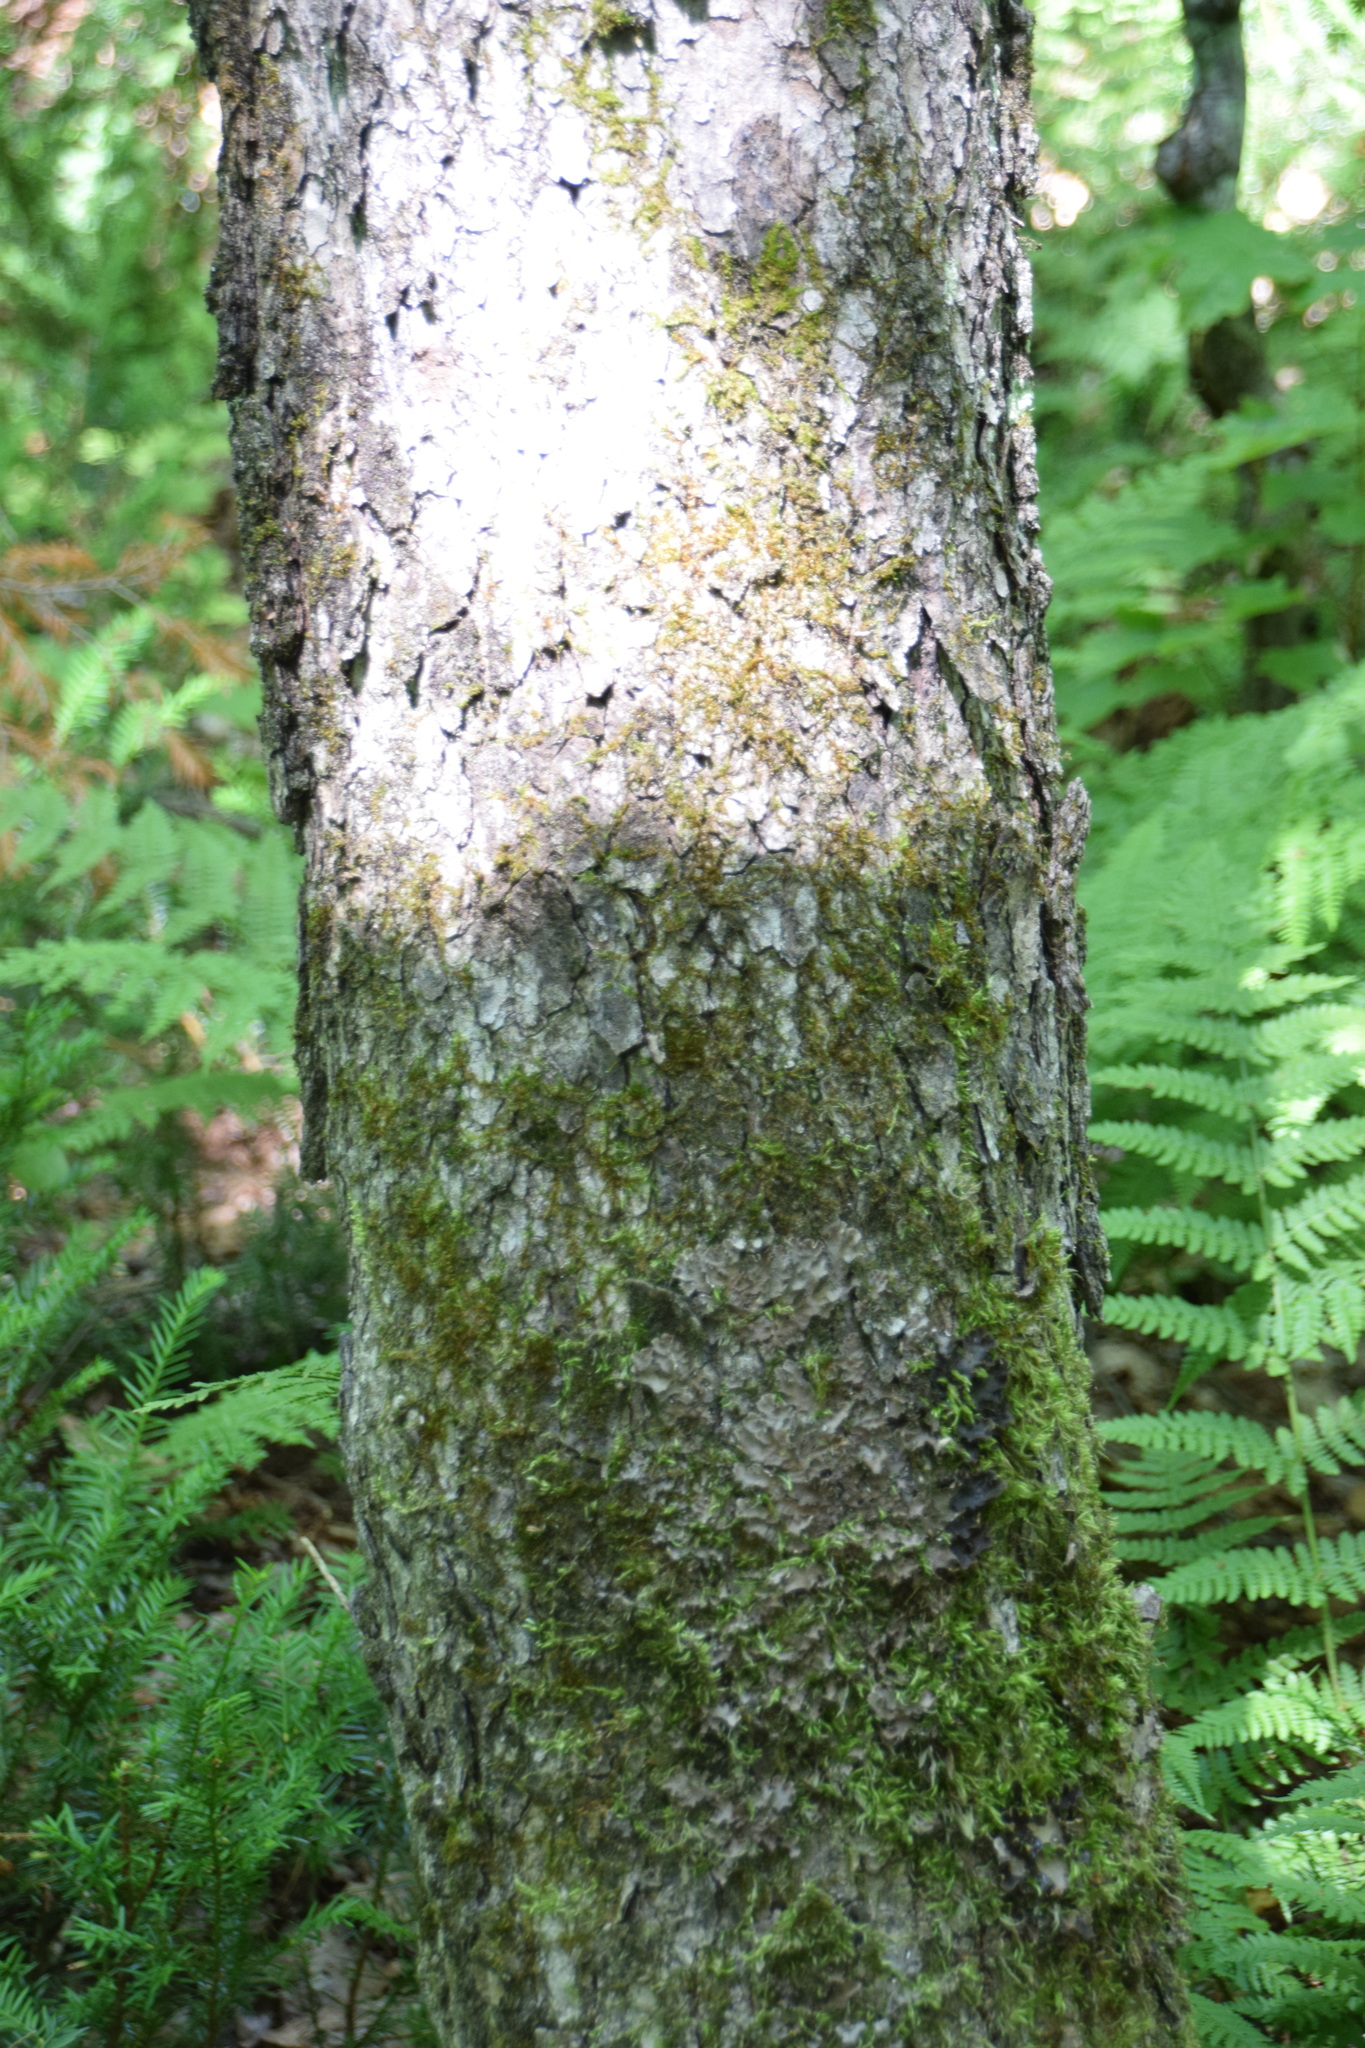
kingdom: Plantae
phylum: Tracheophyta
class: Magnoliopsida
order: Sapindales
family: Sapindaceae
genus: Acer
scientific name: Acer saccharum
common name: Sugar maple
